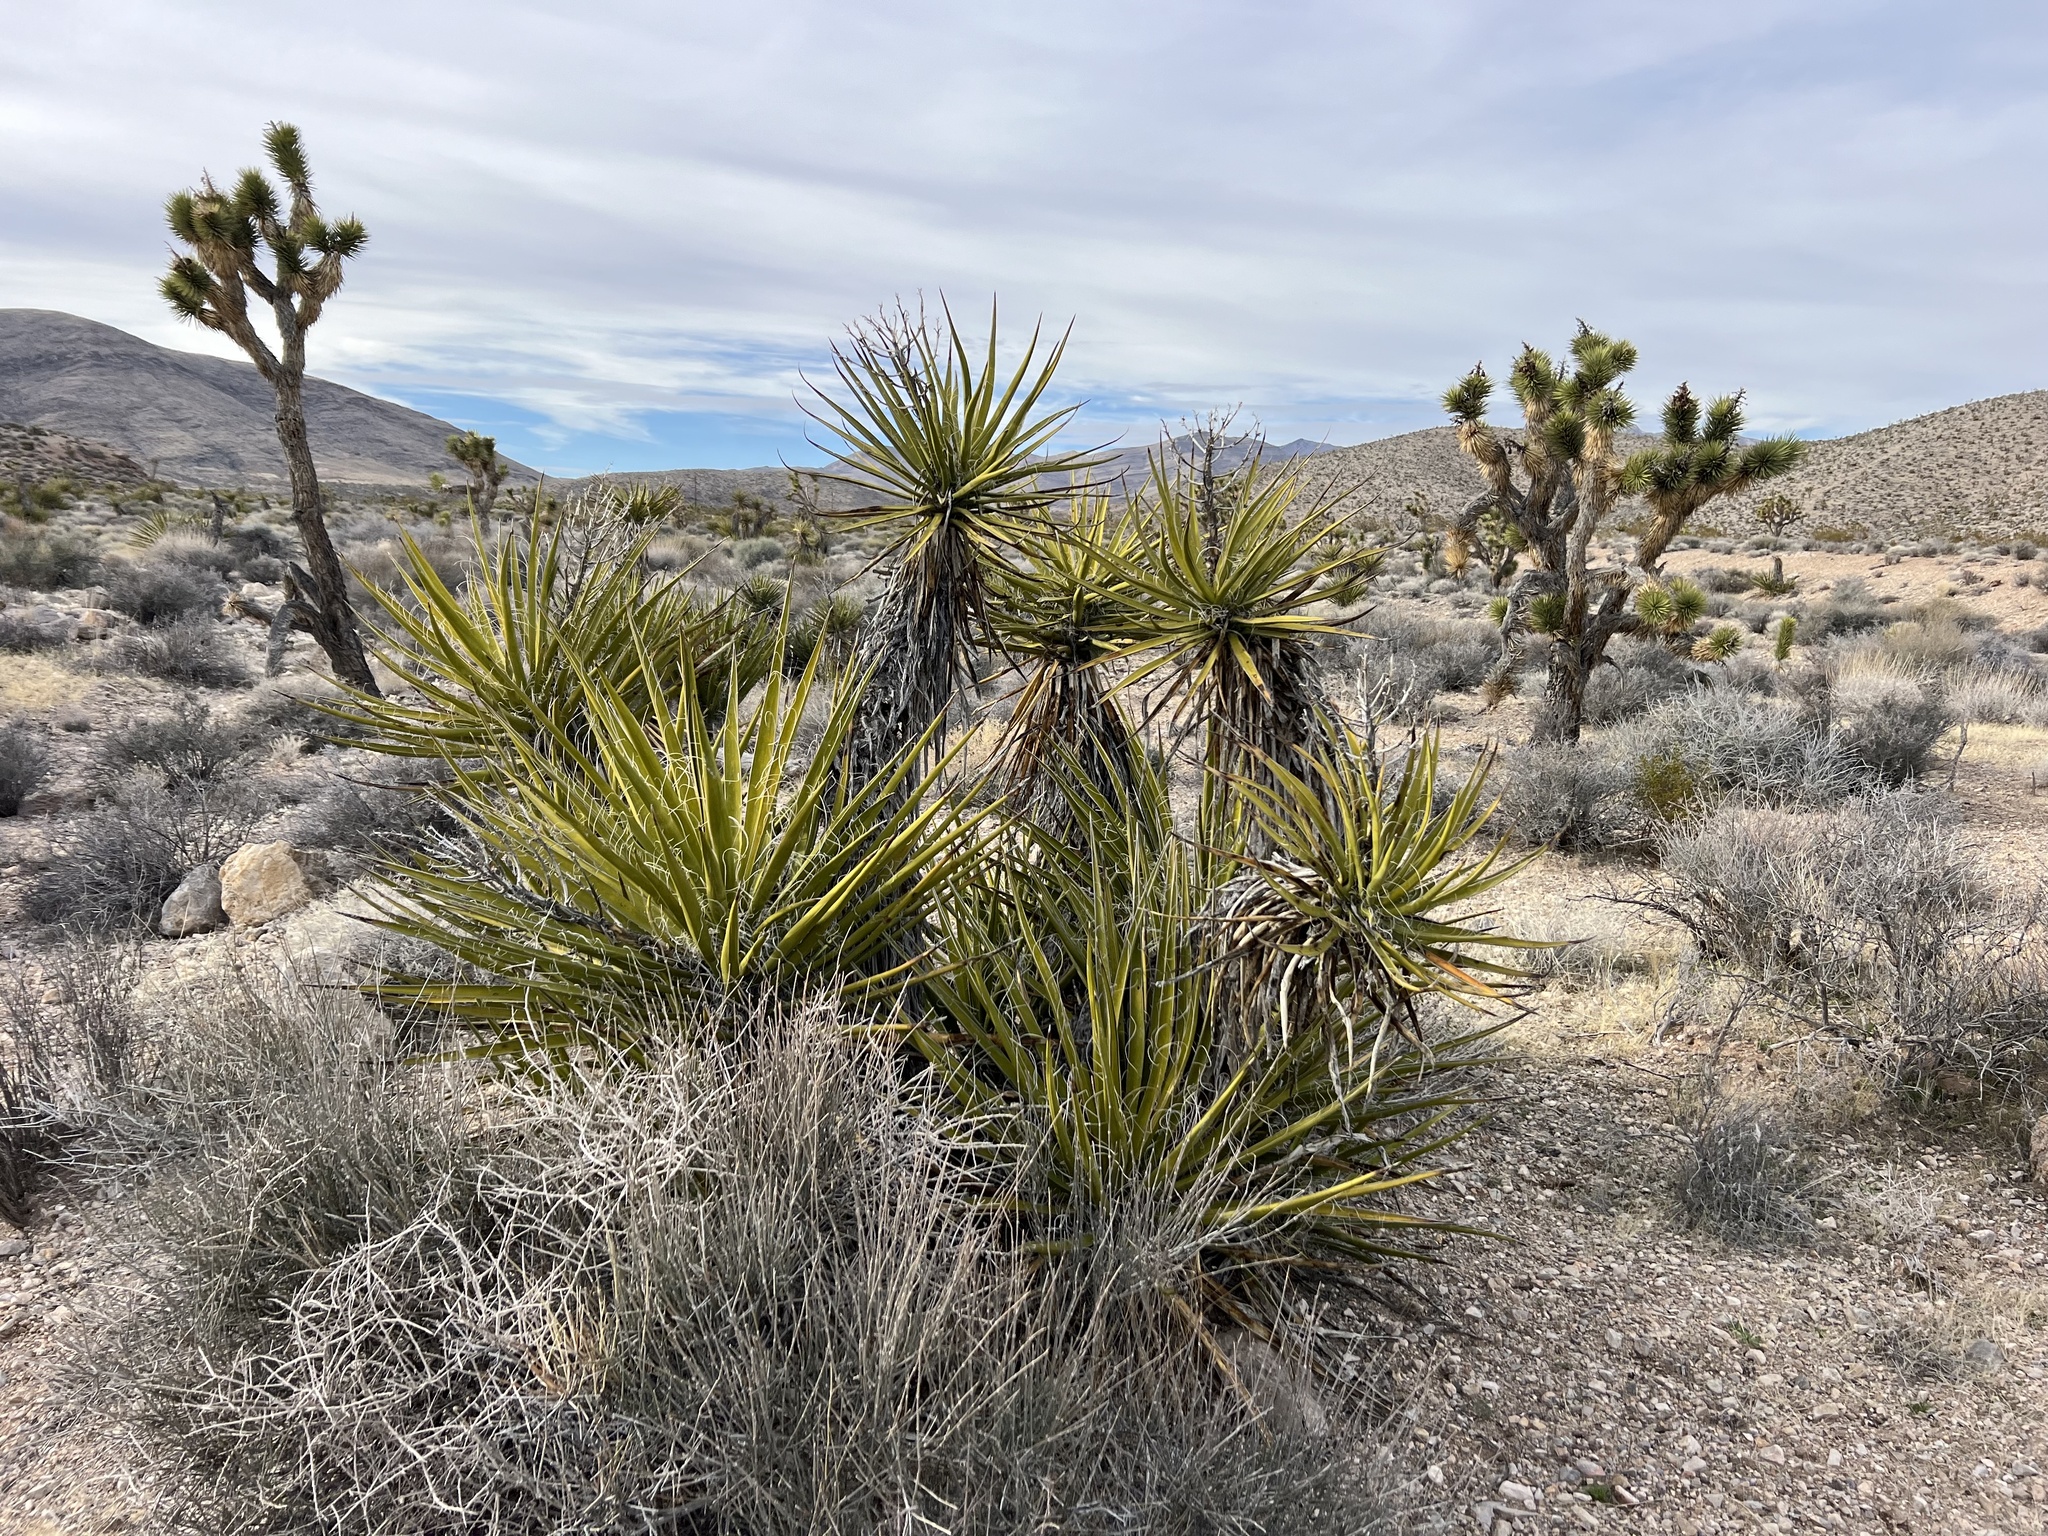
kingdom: Plantae
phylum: Tracheophyta
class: Liliopsida
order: Asparagales
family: Asparagaceae
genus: Yucca
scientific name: Yucca schidigera
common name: Mojave yucca
